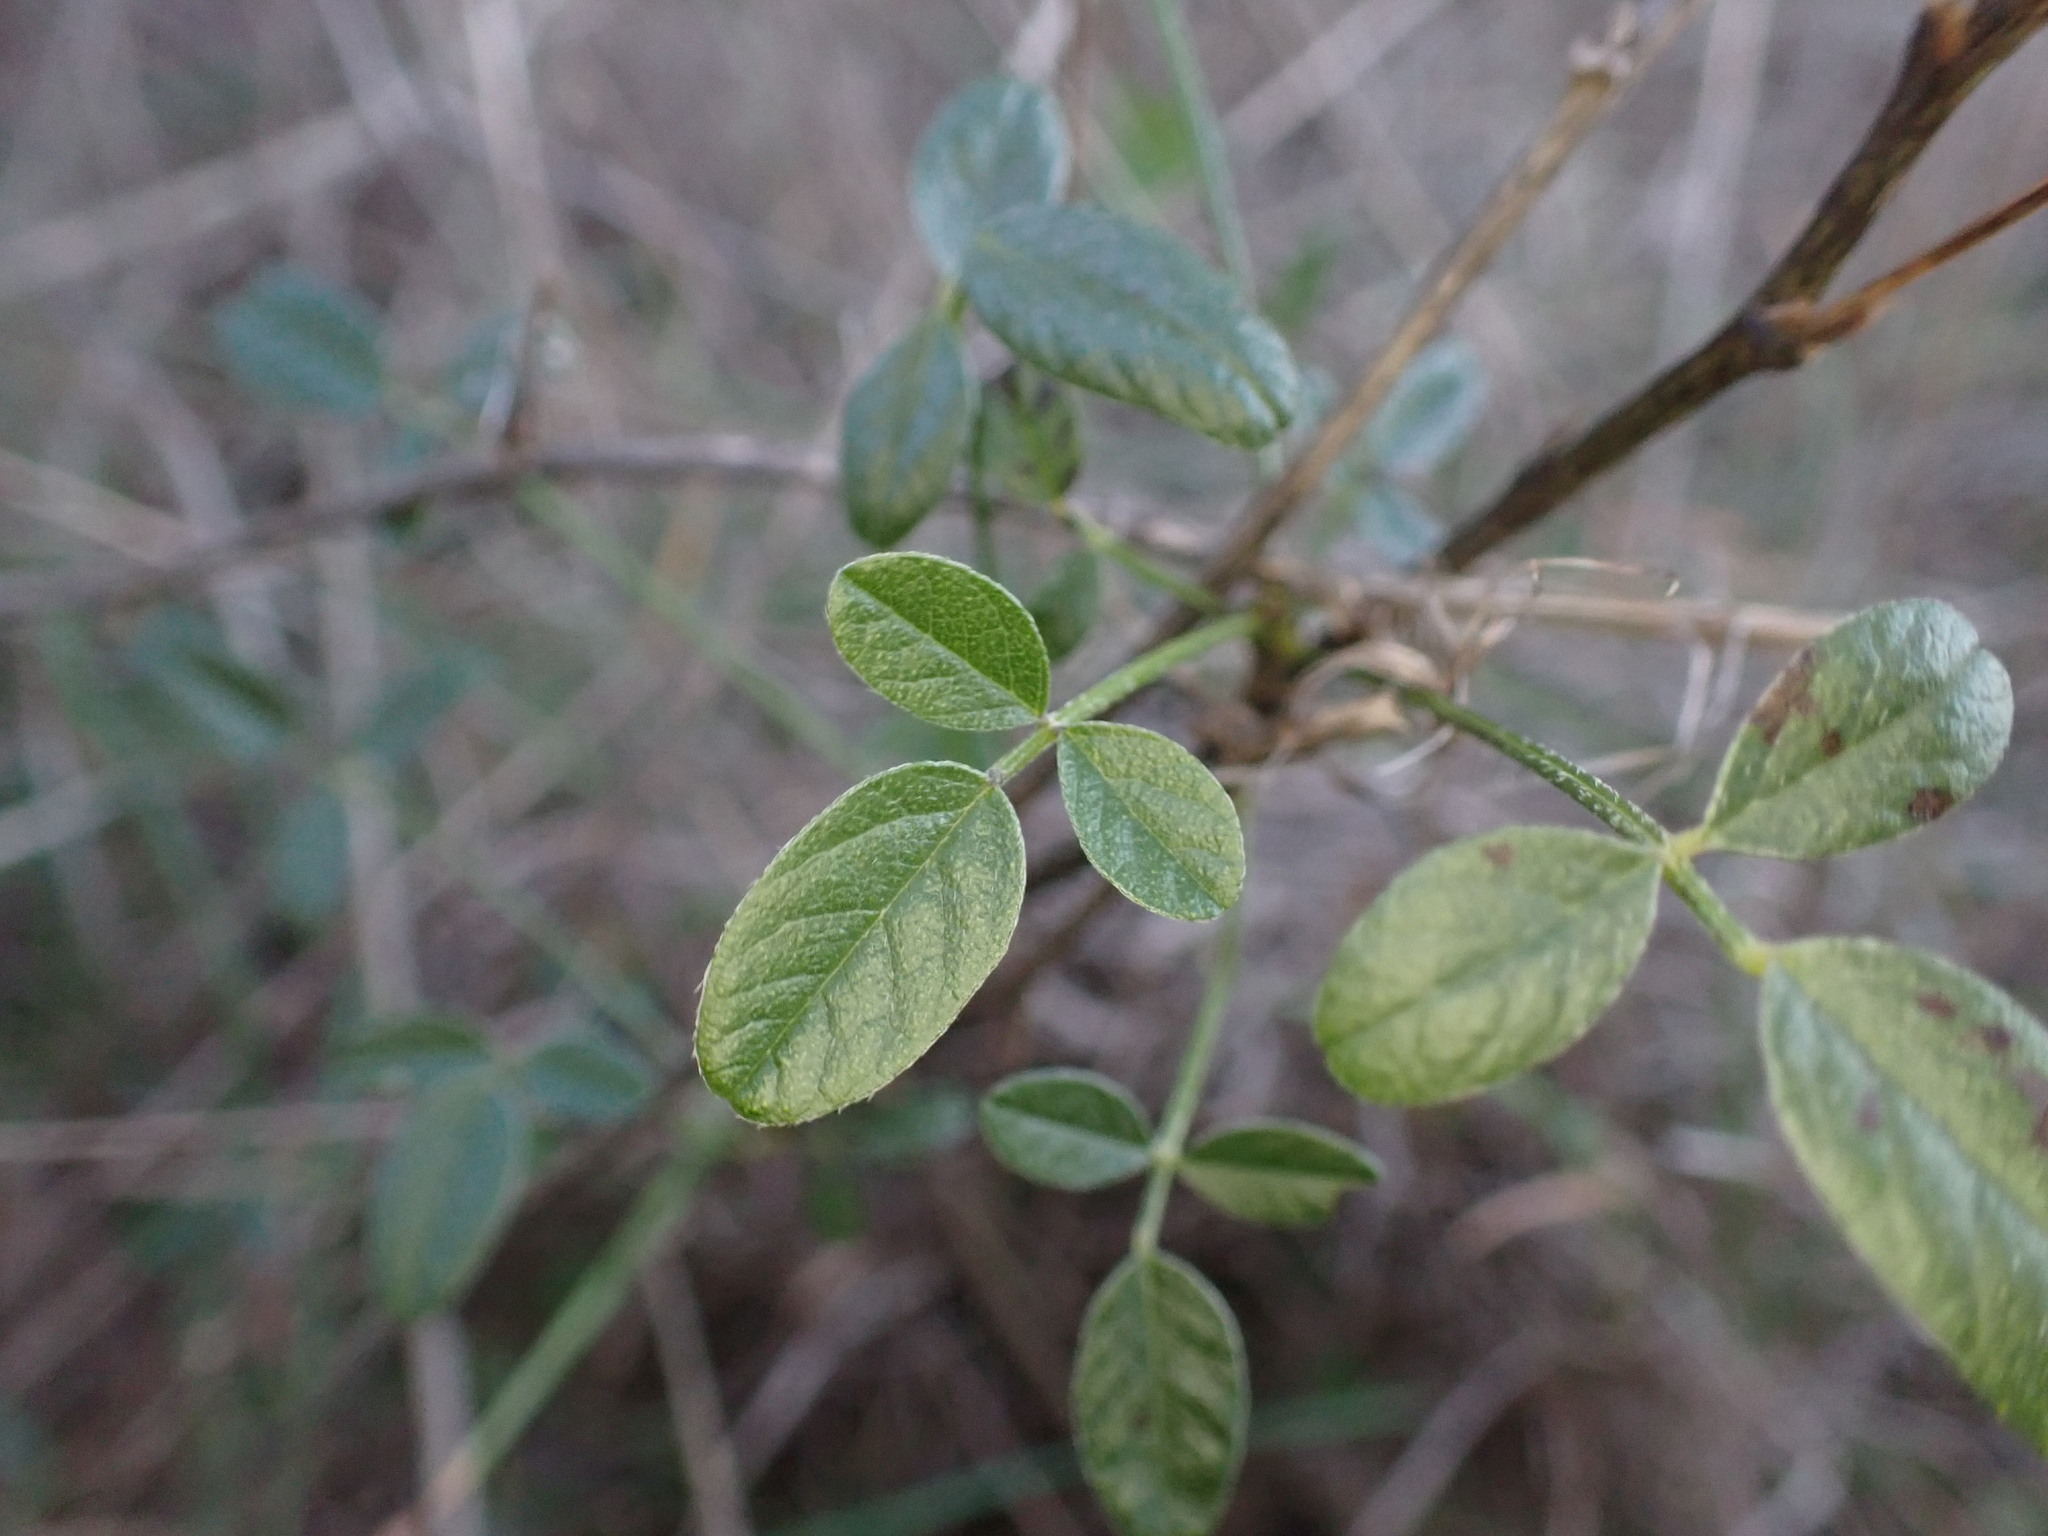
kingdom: Plantae
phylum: Tracheophyta
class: Magnoliopsida
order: Fabales
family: Fabaceae
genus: Bituminaria
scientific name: Bituminaria bituminosa
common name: Arabian pea
